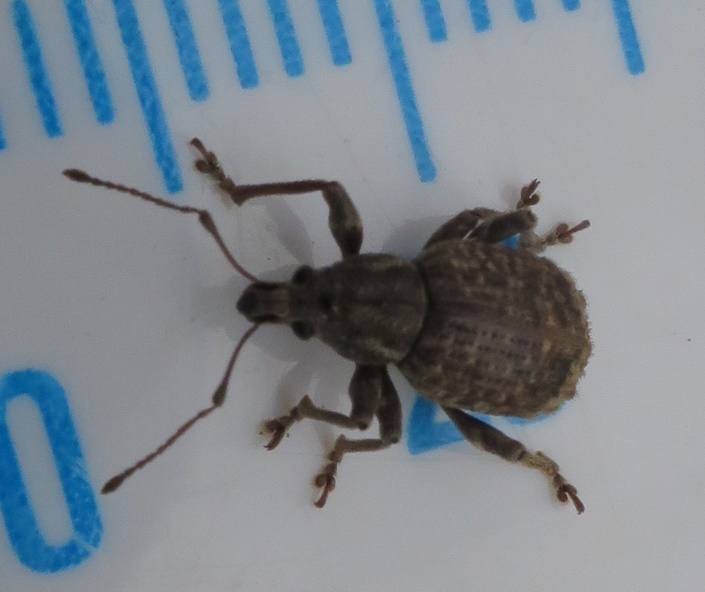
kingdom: Animalia
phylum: Arthropoda
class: Insecta
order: Coleoptera
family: Curculionidae
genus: Phlyctinus
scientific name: Phlyctinus callosus
